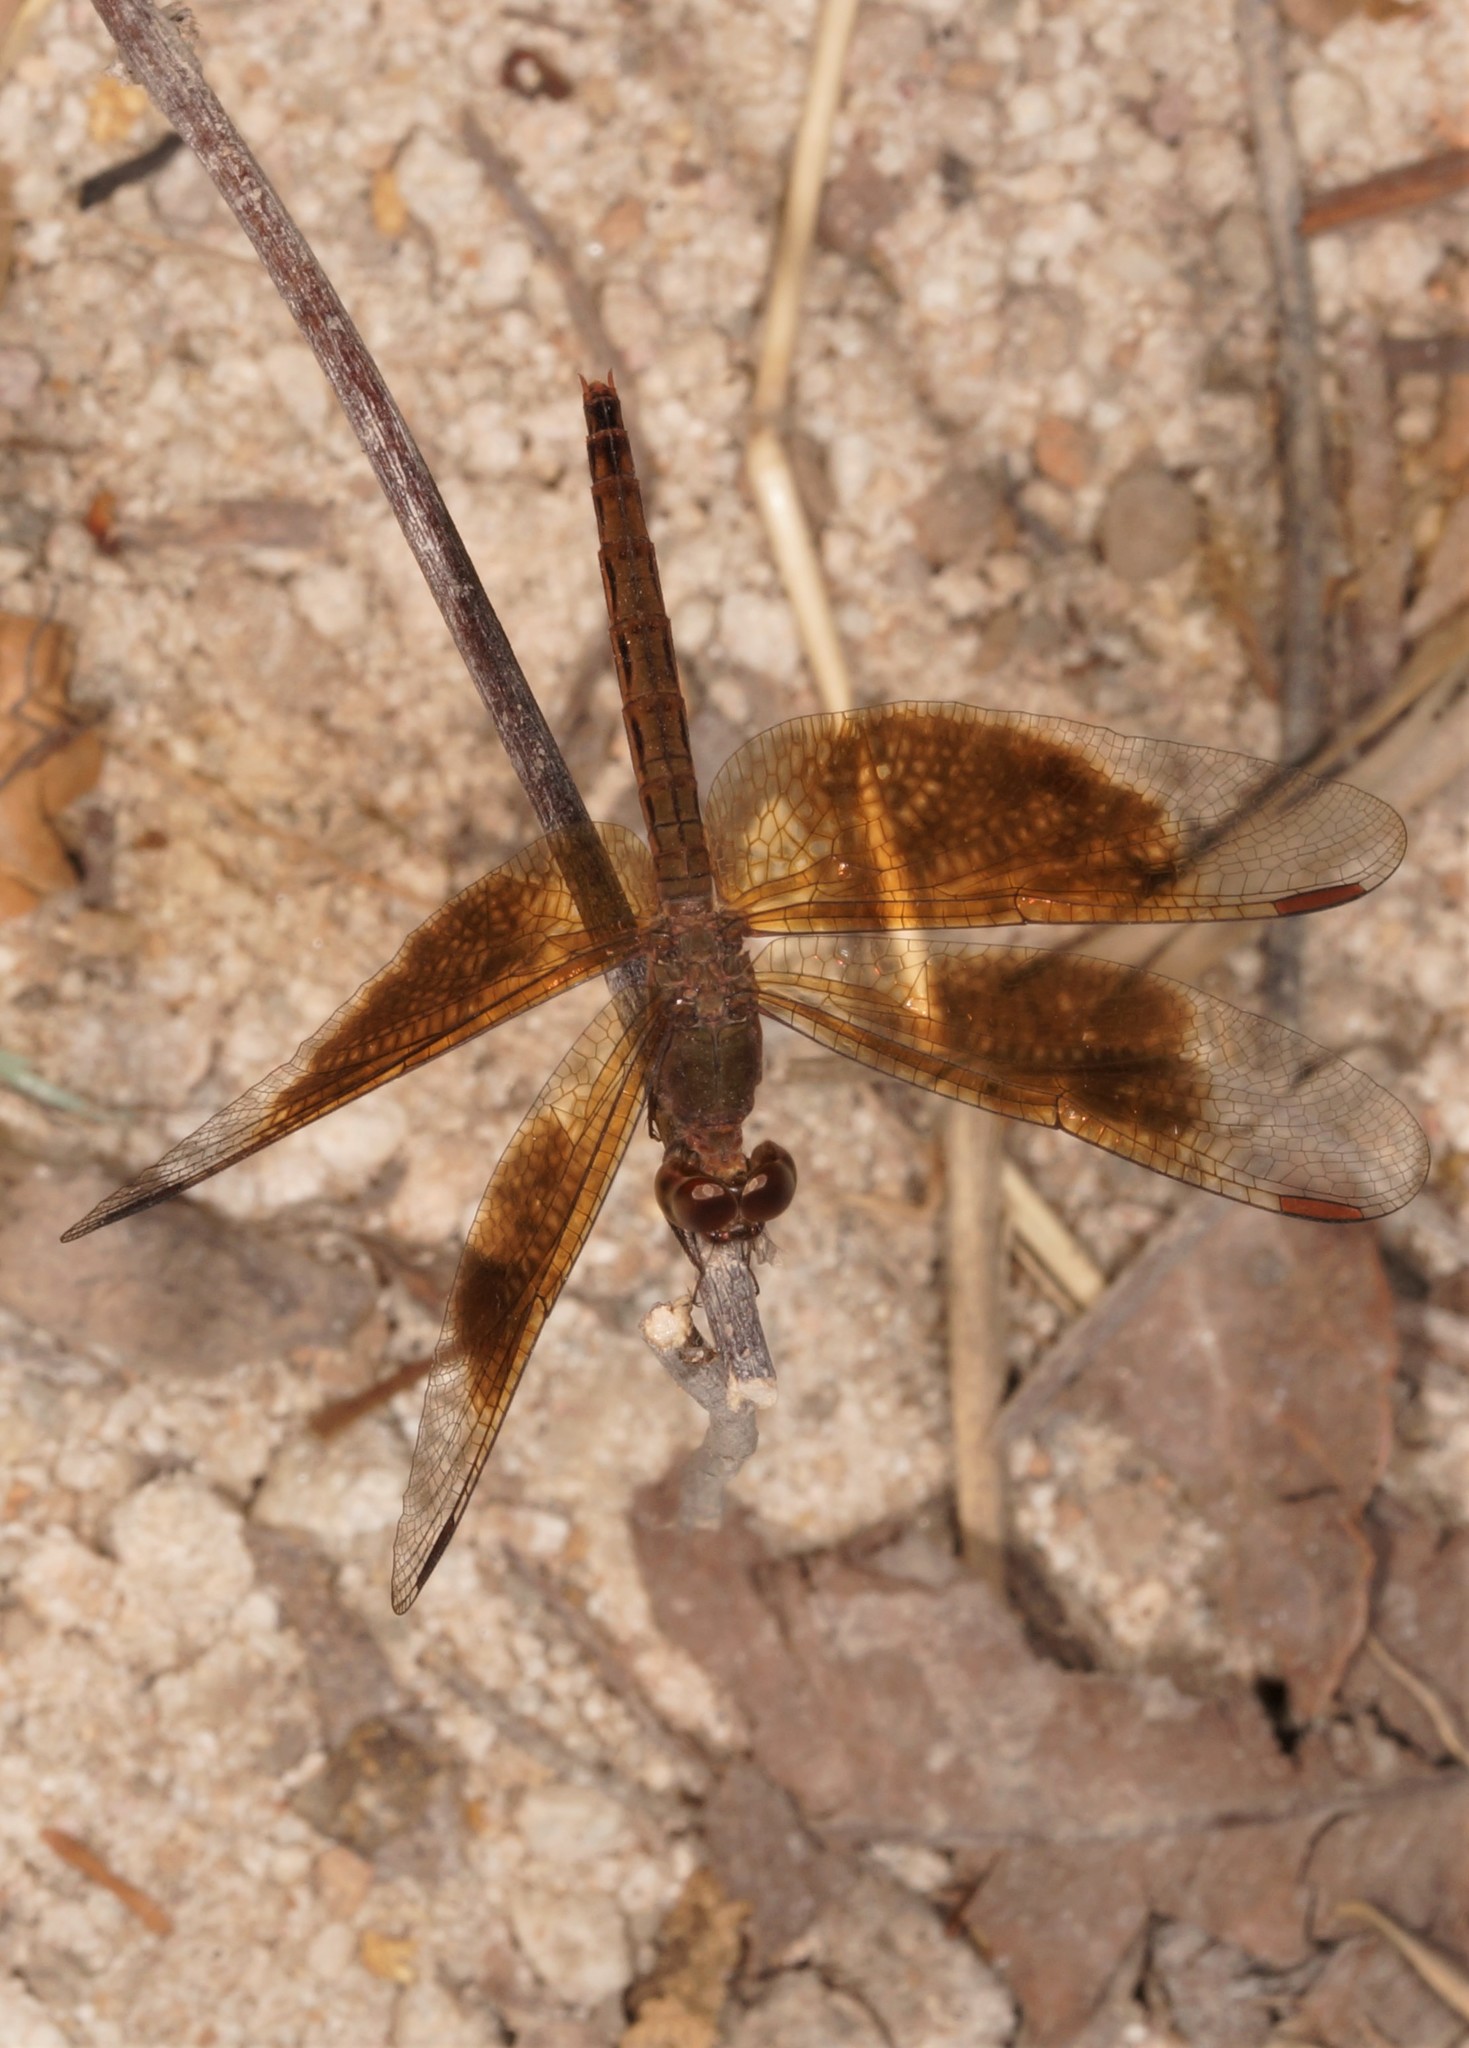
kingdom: Animalia
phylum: Arthropoda
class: Insecta
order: Odonata
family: Libellulidae
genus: Neurothemis
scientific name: Neurothemis fluctuans
